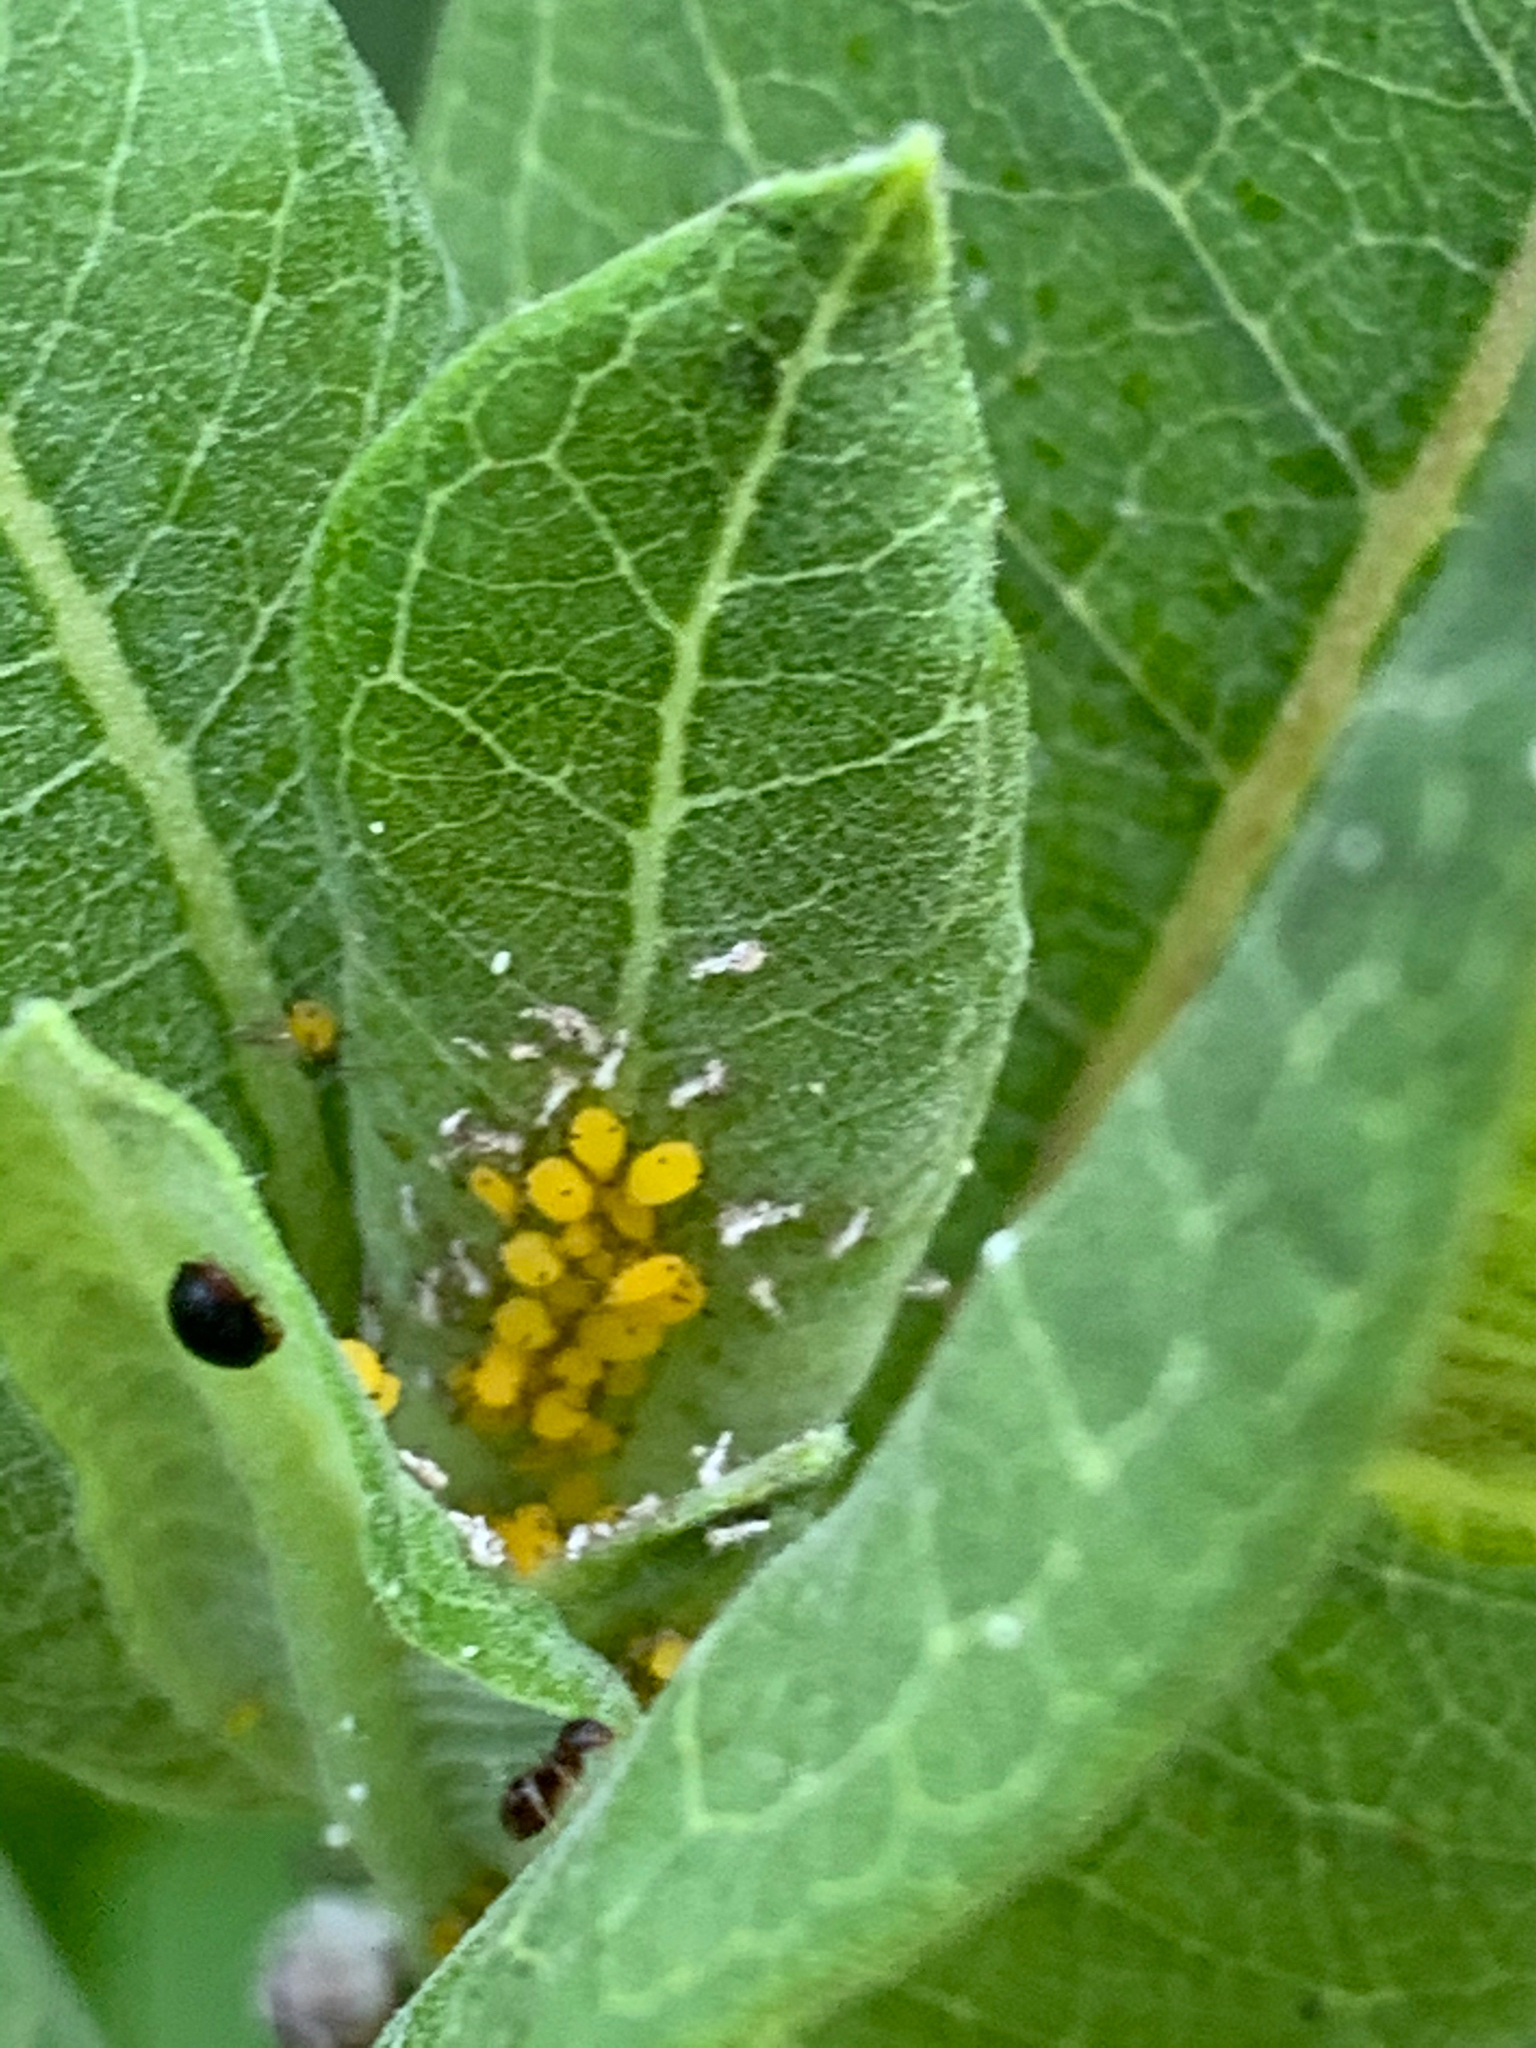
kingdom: Animalia
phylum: Arthropoda
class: Insecta
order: Hemiptera
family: Aphididae
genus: Aphis
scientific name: Aphis nerii
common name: Oleander aphid
